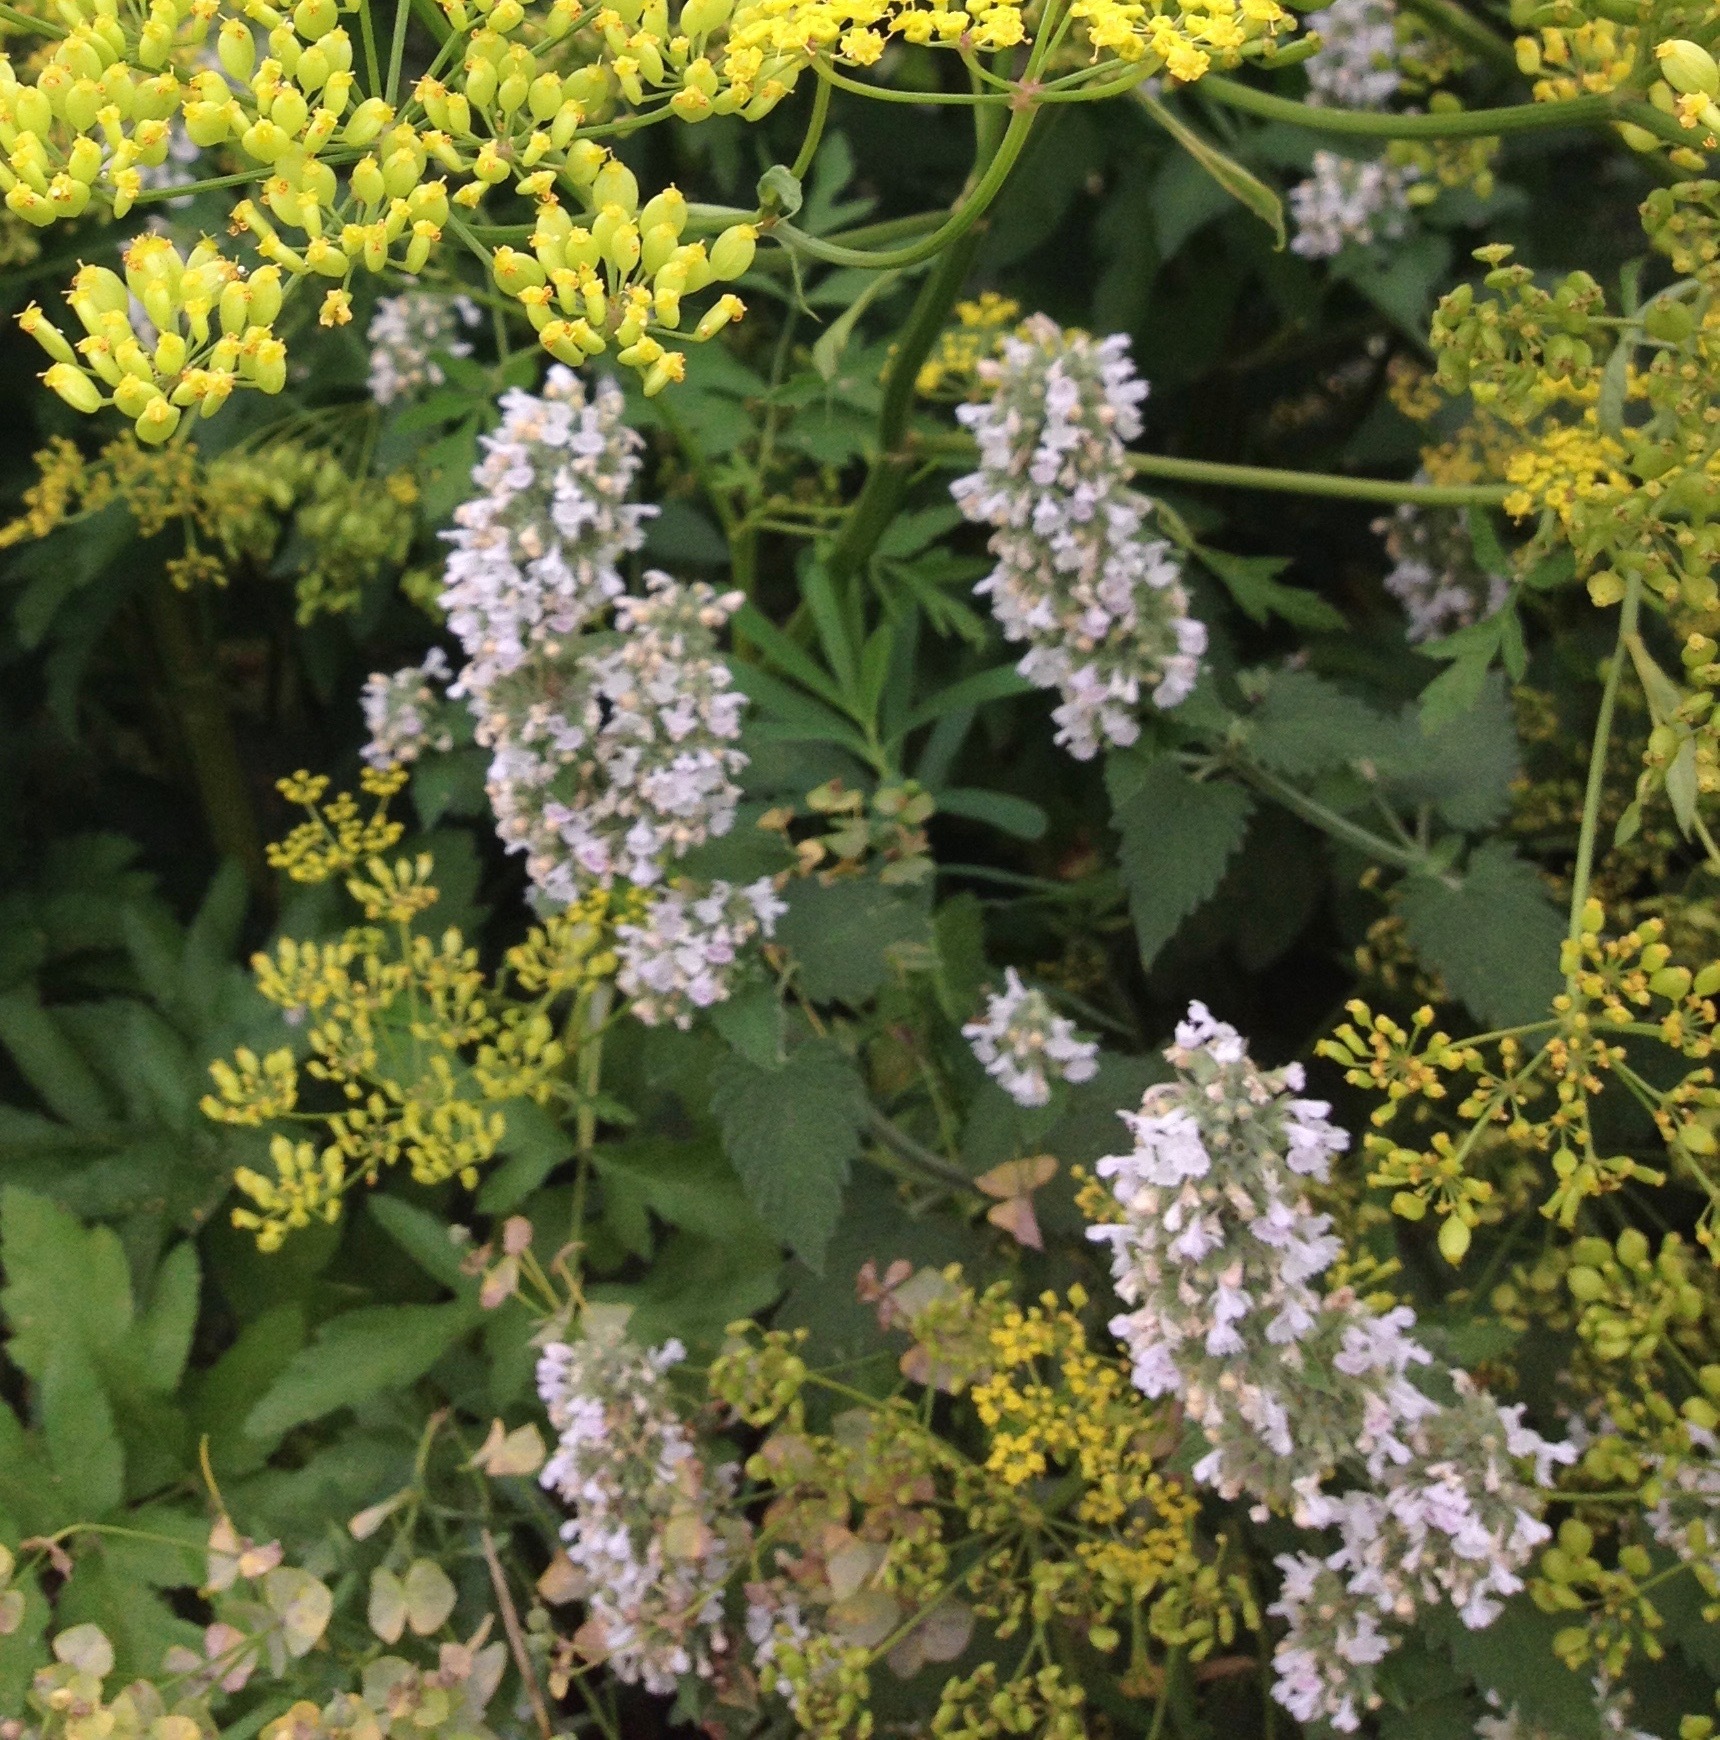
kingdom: Plantae
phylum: Tracheophyta
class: Magnoliopsida
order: Lamiales
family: Lamiaceae
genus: Nepeta
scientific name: Nepeta cataria
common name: Catnip
